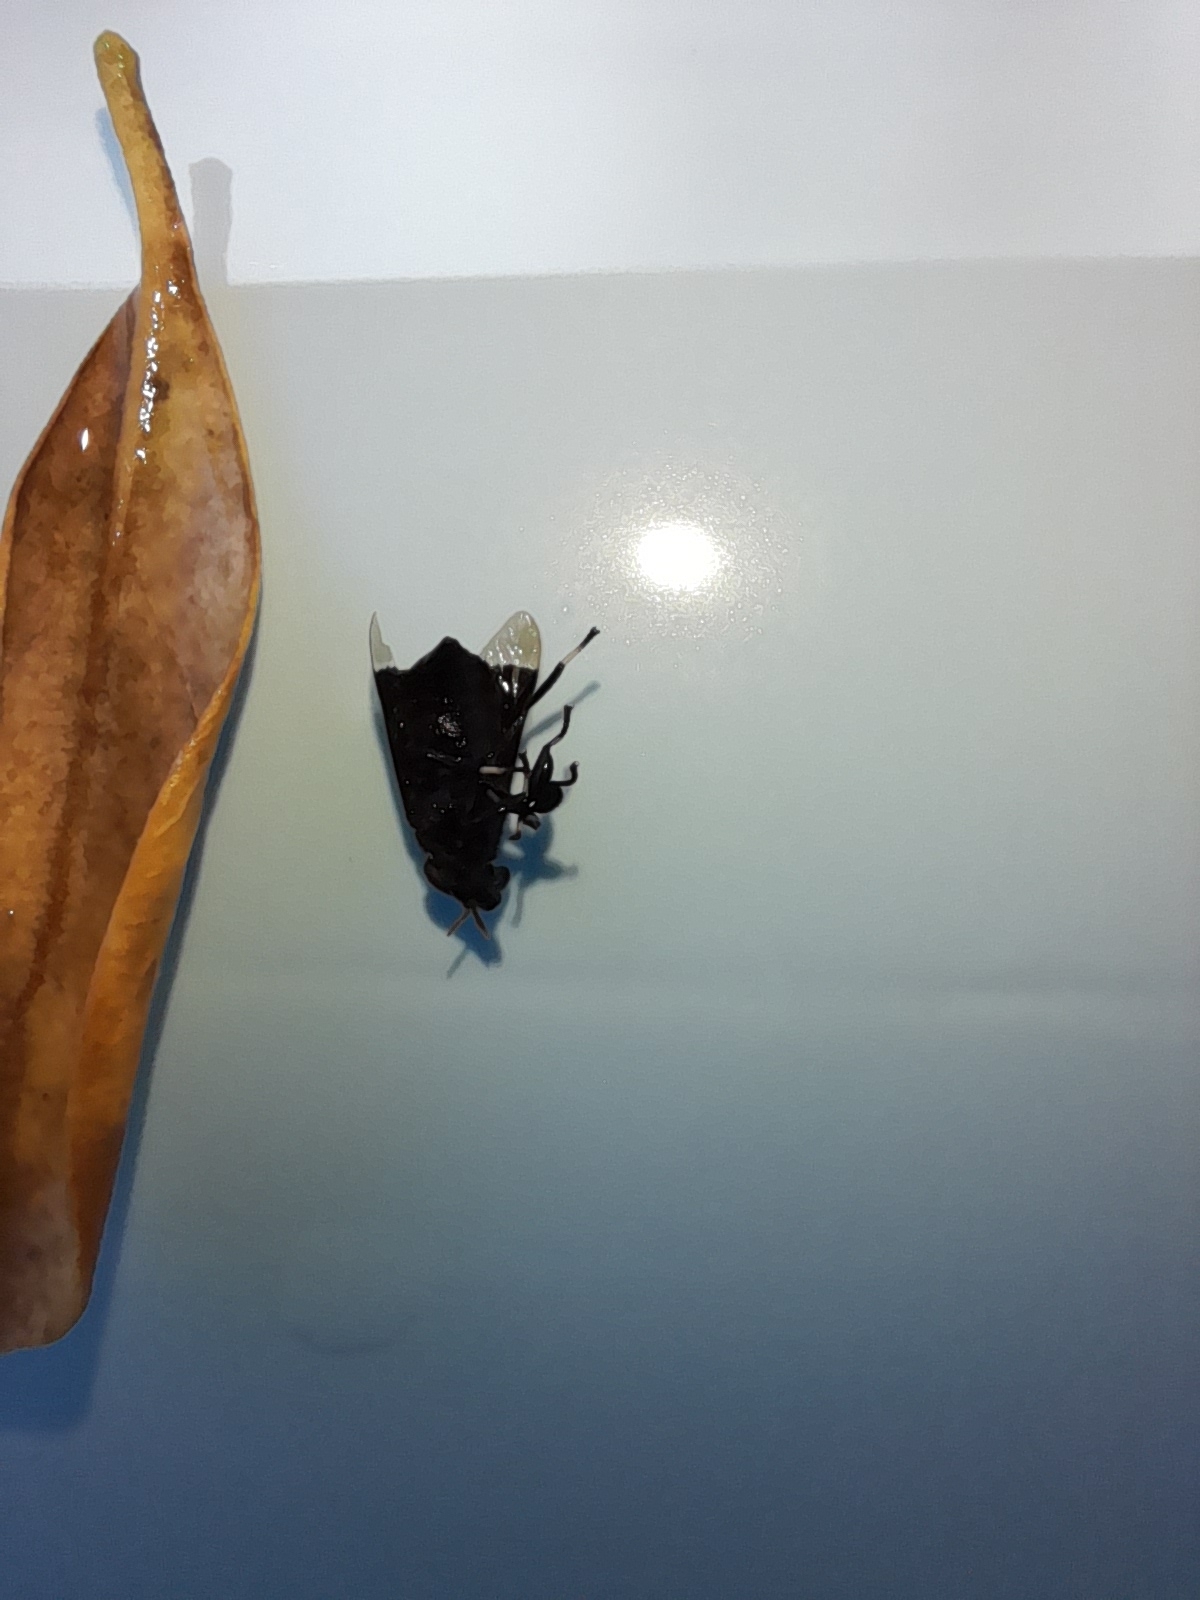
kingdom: Animalia
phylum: Arthropoda
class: Insecta
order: Diptera
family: Tabanidae
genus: Lepiselaga
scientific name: Lepiselaga
